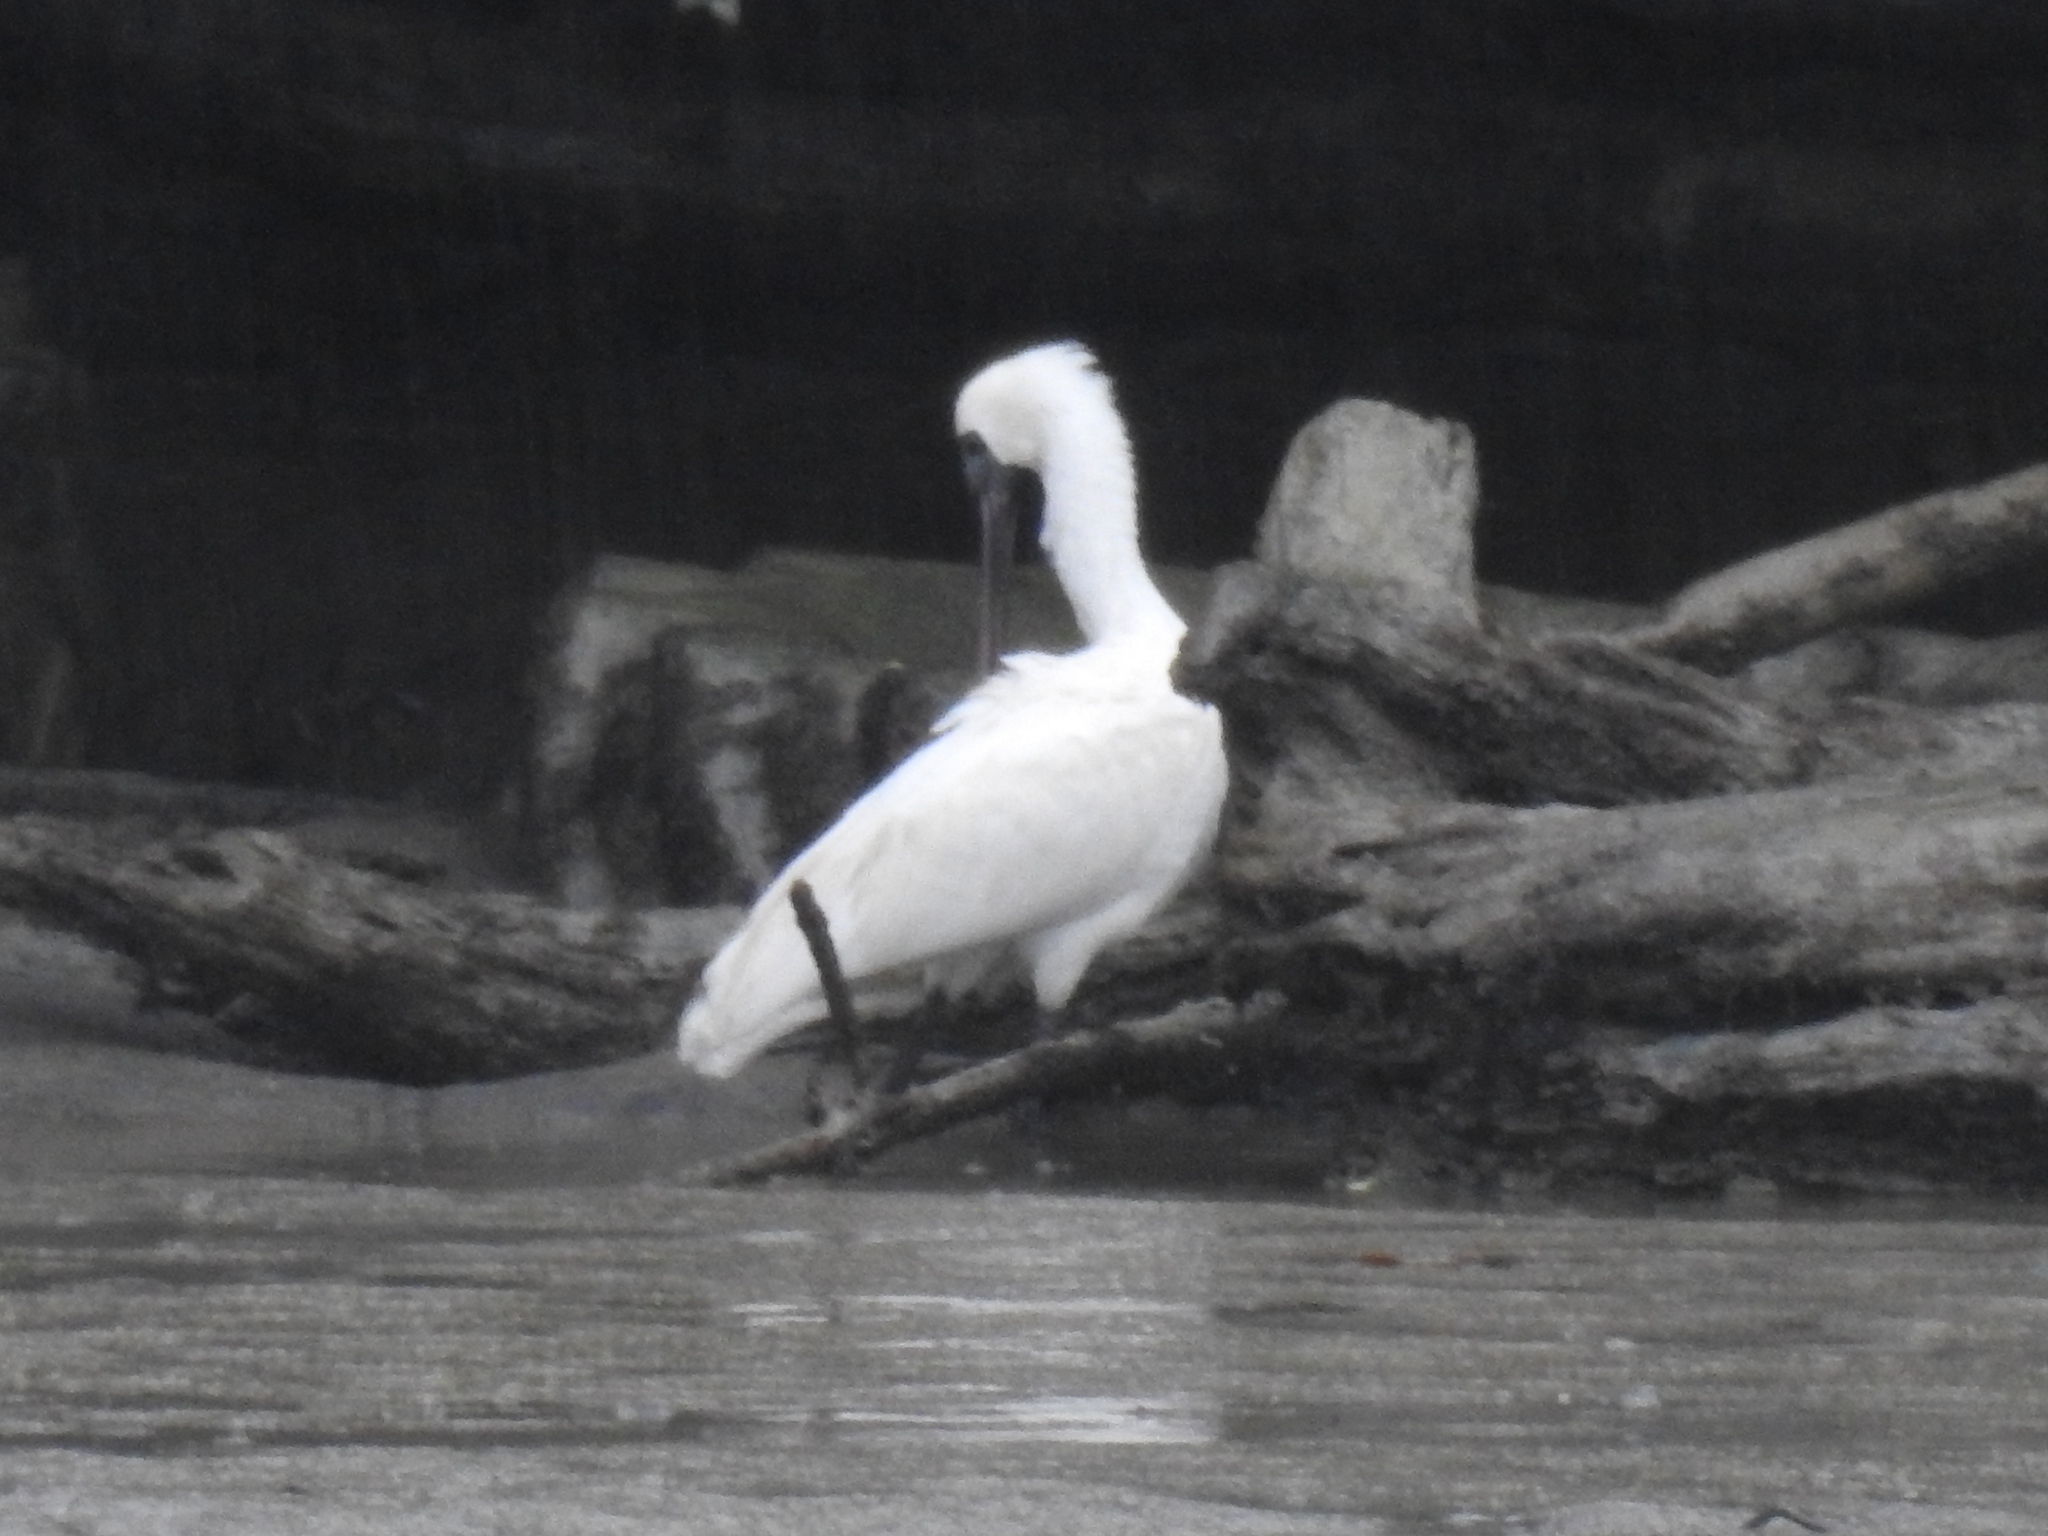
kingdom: Animalia
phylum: Chordata
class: Aves
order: Pelecaniformes
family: Threskiornithidae
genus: Platalea
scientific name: Platalea regia
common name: Royal spoonbill
